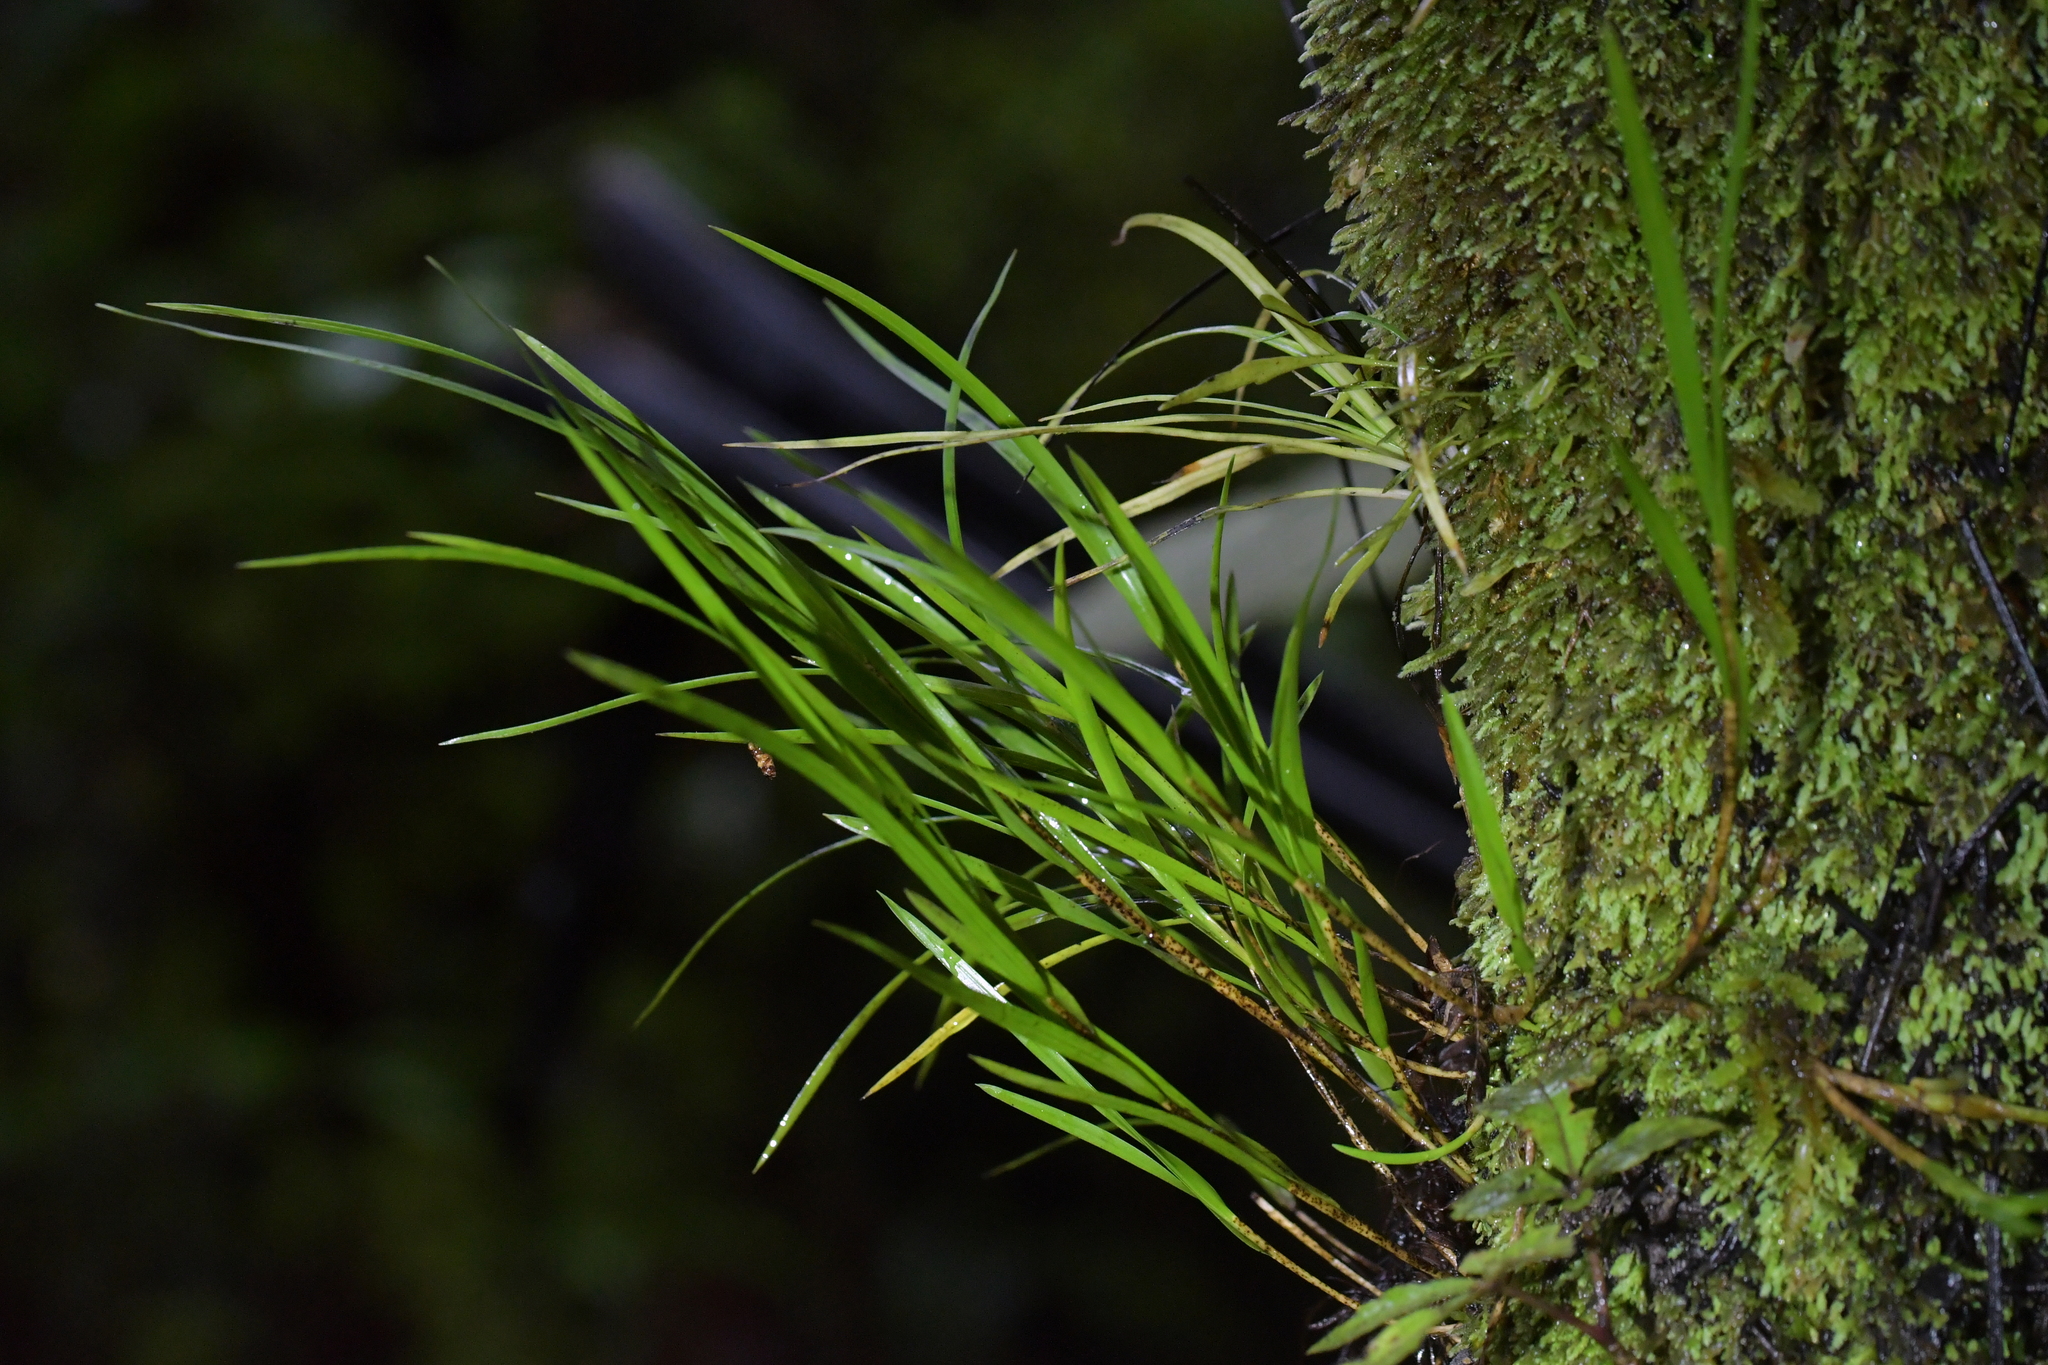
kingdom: Plantae
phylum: Tracheophyta
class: Liliopsida
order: Asparagales
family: Orchidaceae
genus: Earina
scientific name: Earina mucronata
